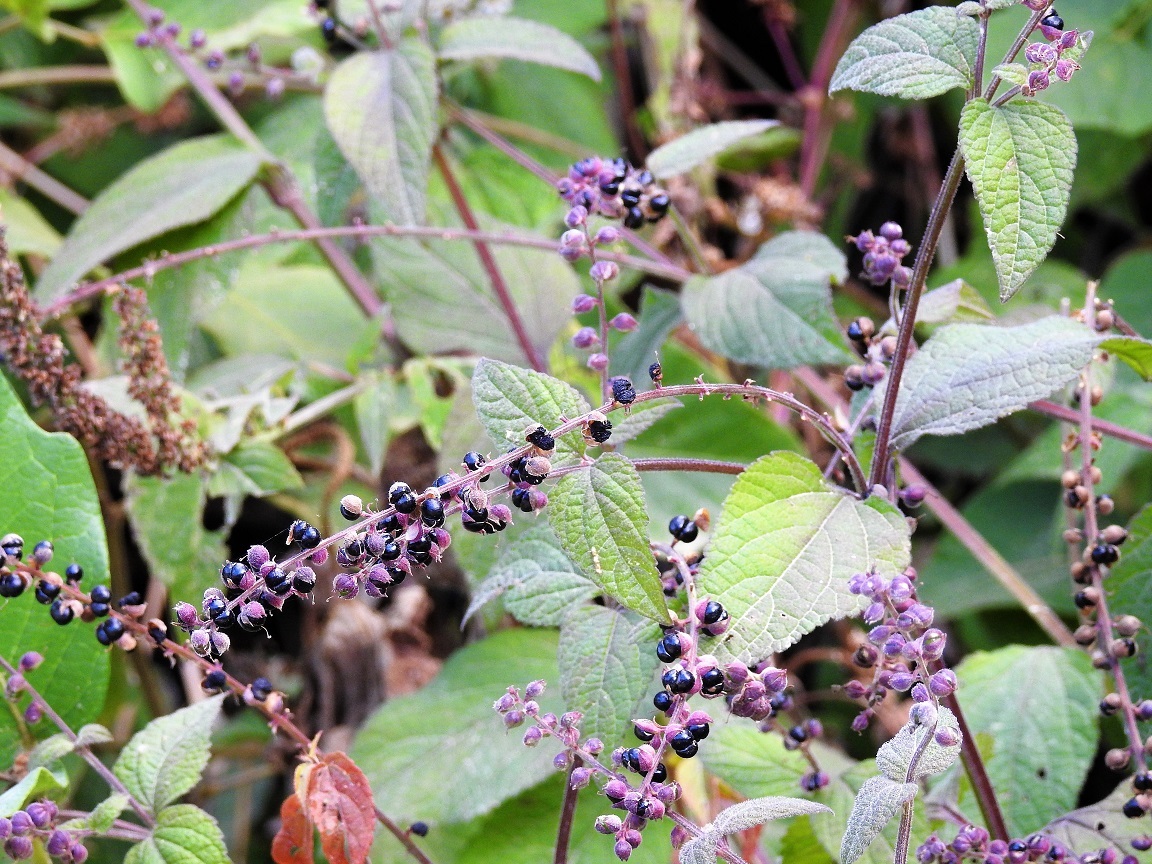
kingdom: Plantae
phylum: Tracheophyta
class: Magnoliopsida
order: Lamiales
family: Verbenaceae
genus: Priva
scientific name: Priva aspera
